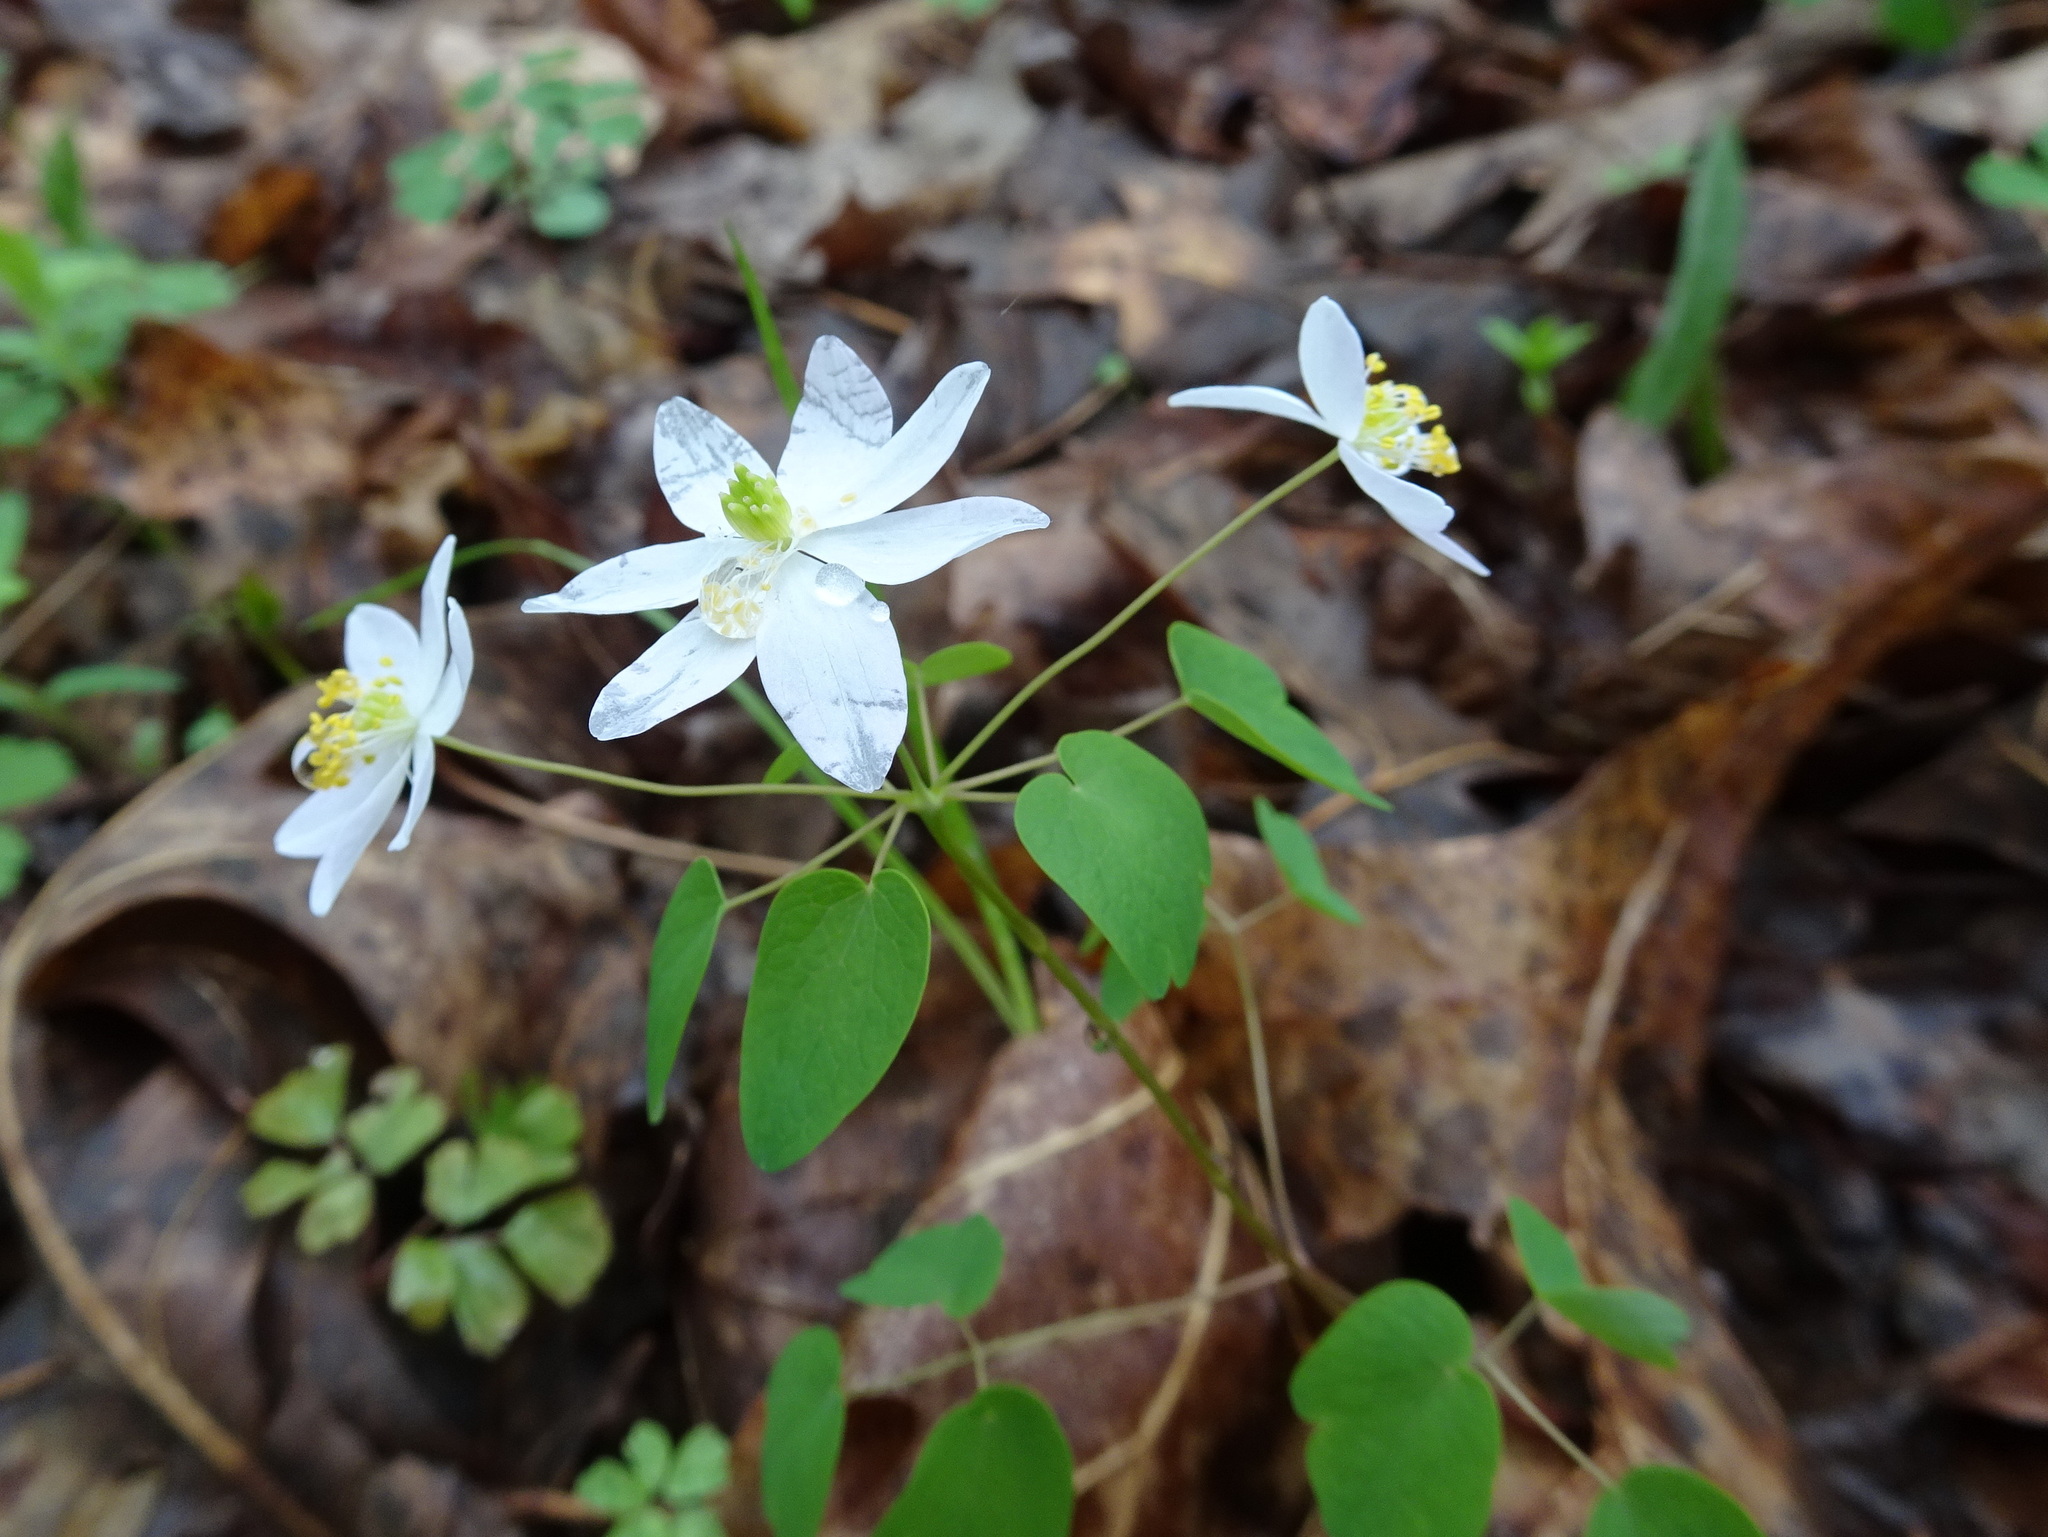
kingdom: Plantae
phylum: Tracheophyta
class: Magnoliopsida
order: Ranunculales
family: Ranunculaceae
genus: Thalictrum
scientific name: Thalictrum thalictroides
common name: Rue-anemone
